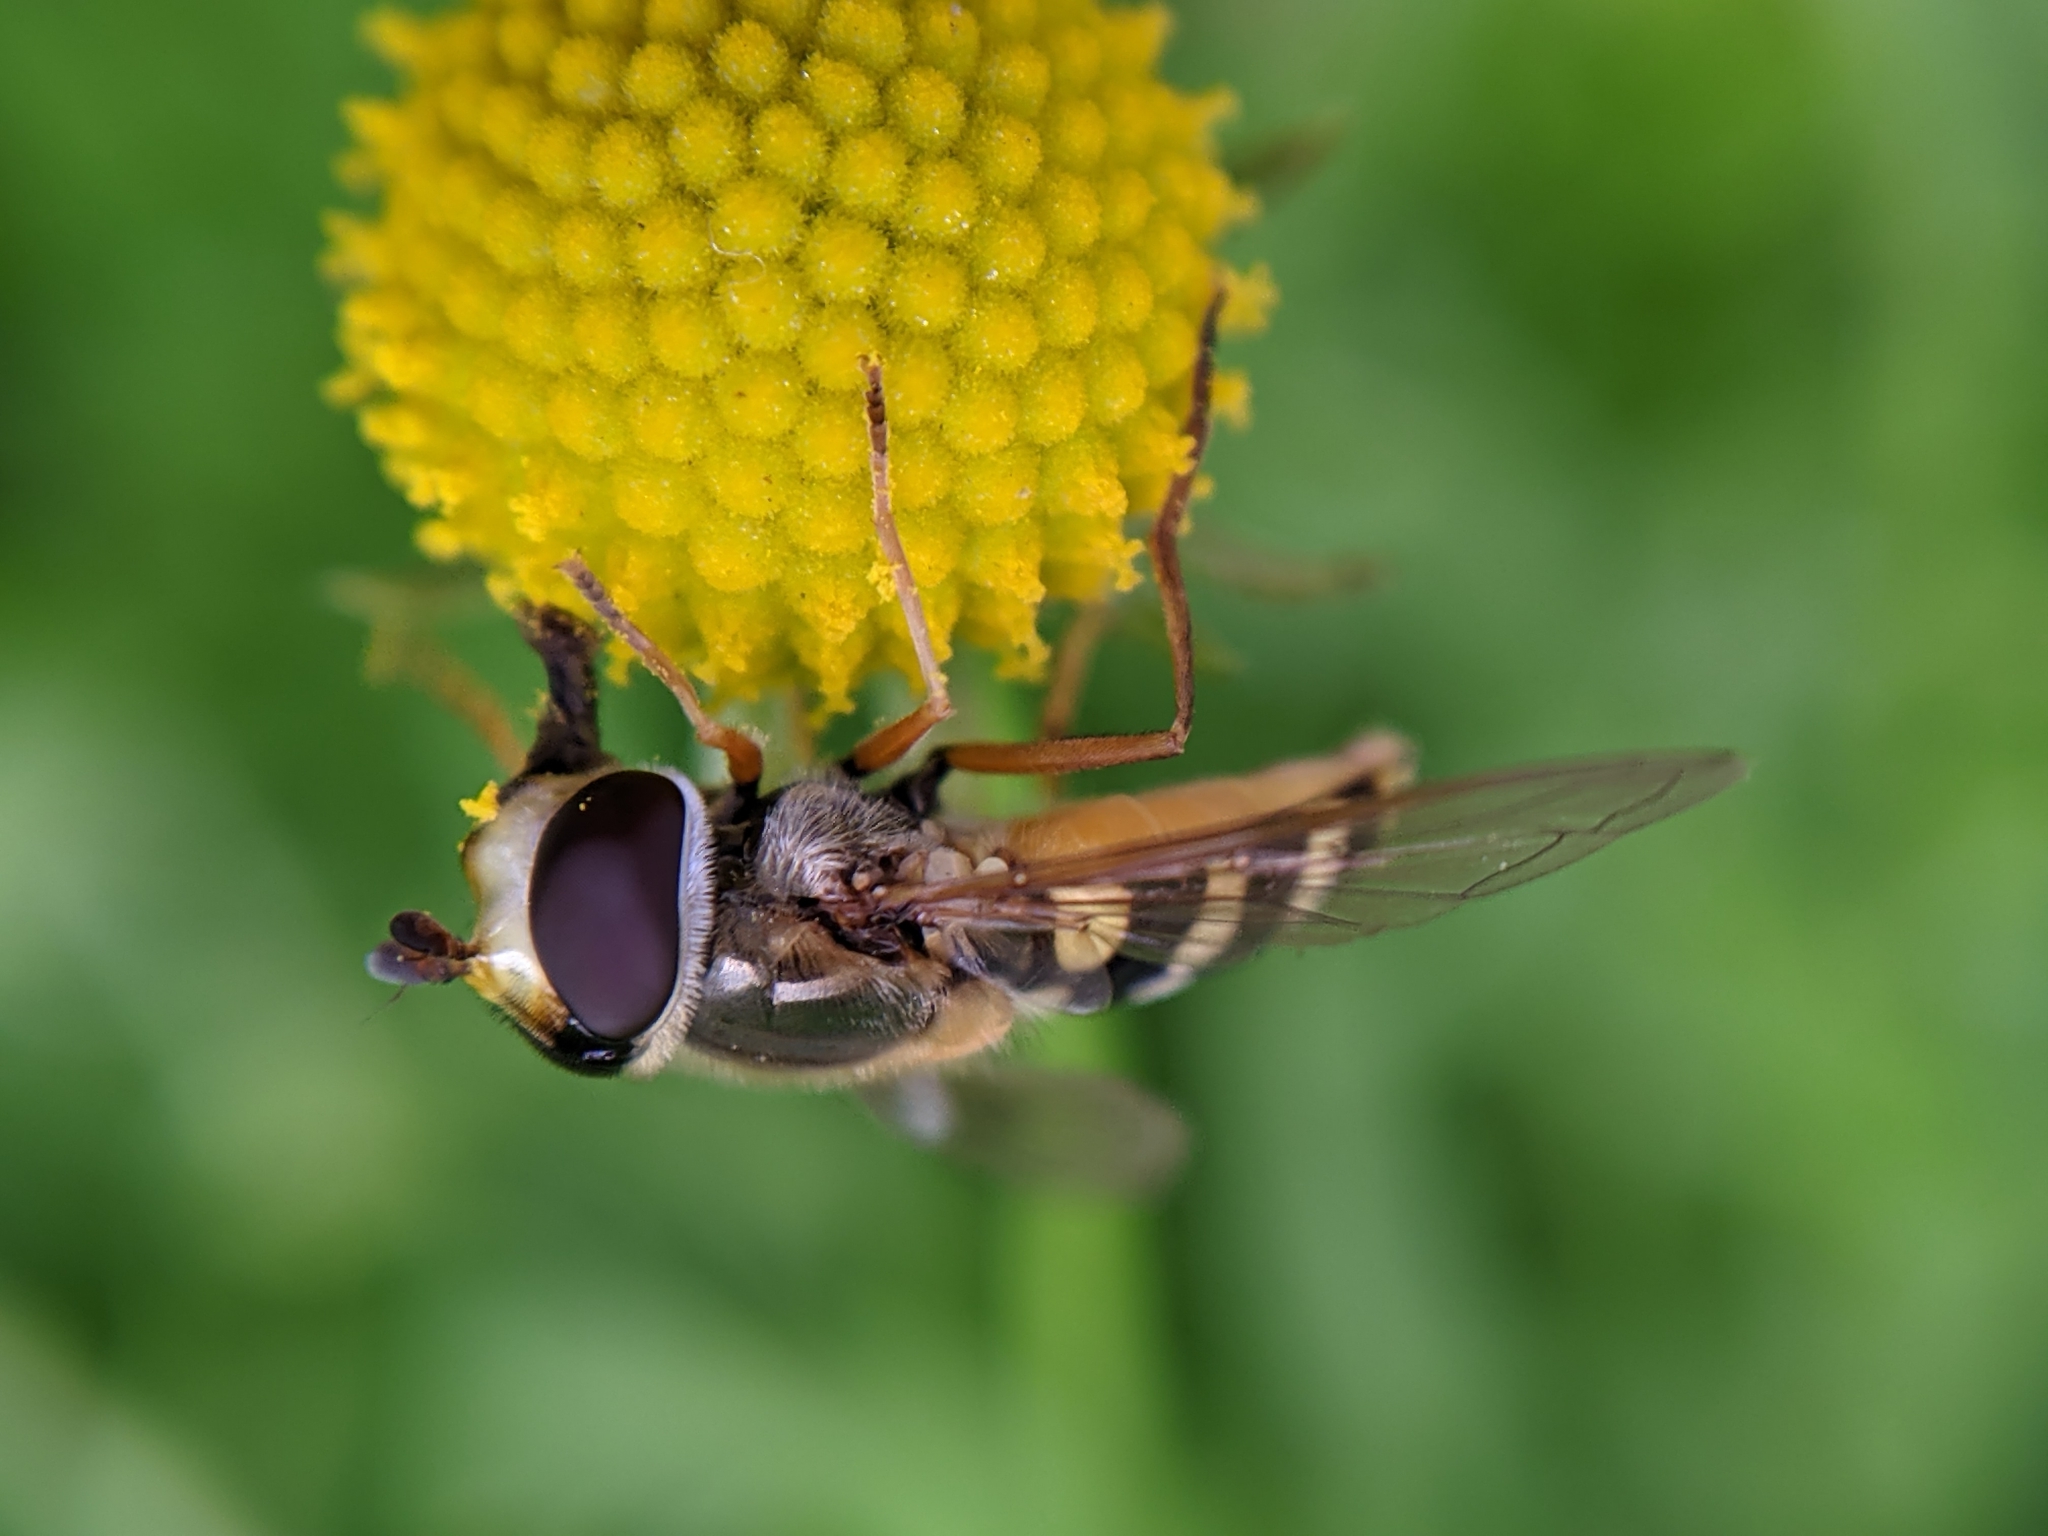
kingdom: Animalia
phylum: Arthropoda
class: Insecta
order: Diptera
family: Syrphidae
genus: Eupeodes
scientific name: Eupeodes corollae
